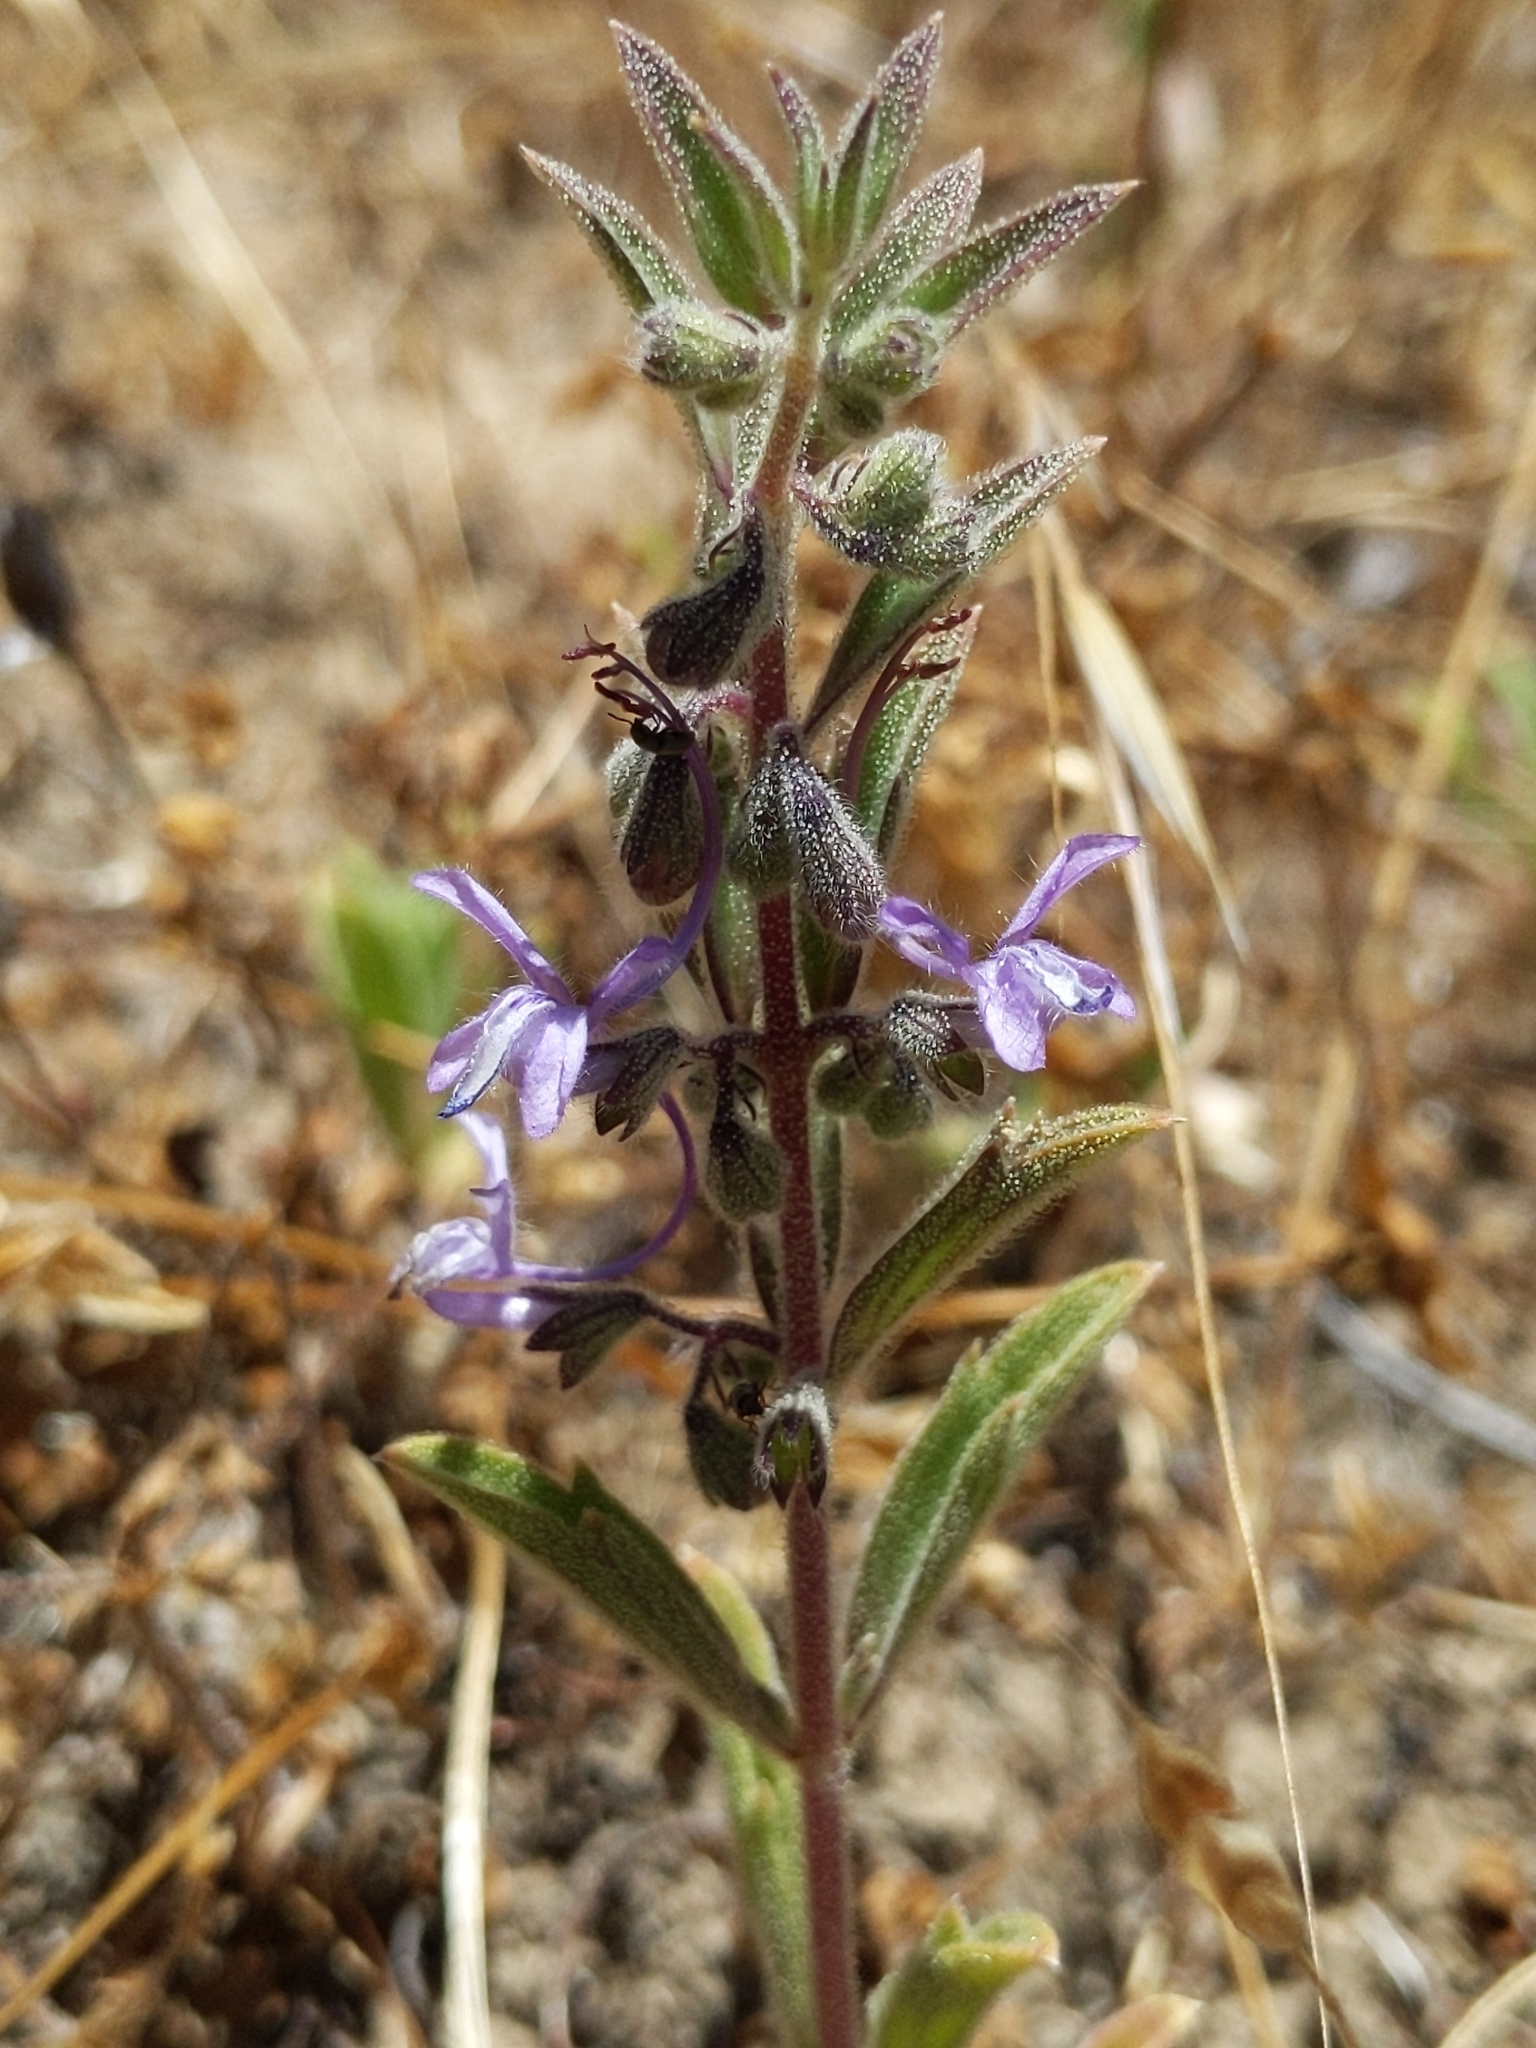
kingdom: Plantae
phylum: Tracheophyta
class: Magnoliopsida
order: Lamiales
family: Lamiaceae
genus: Trichostema
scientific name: Trichostema lanceolatum
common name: Vinegar-weed
